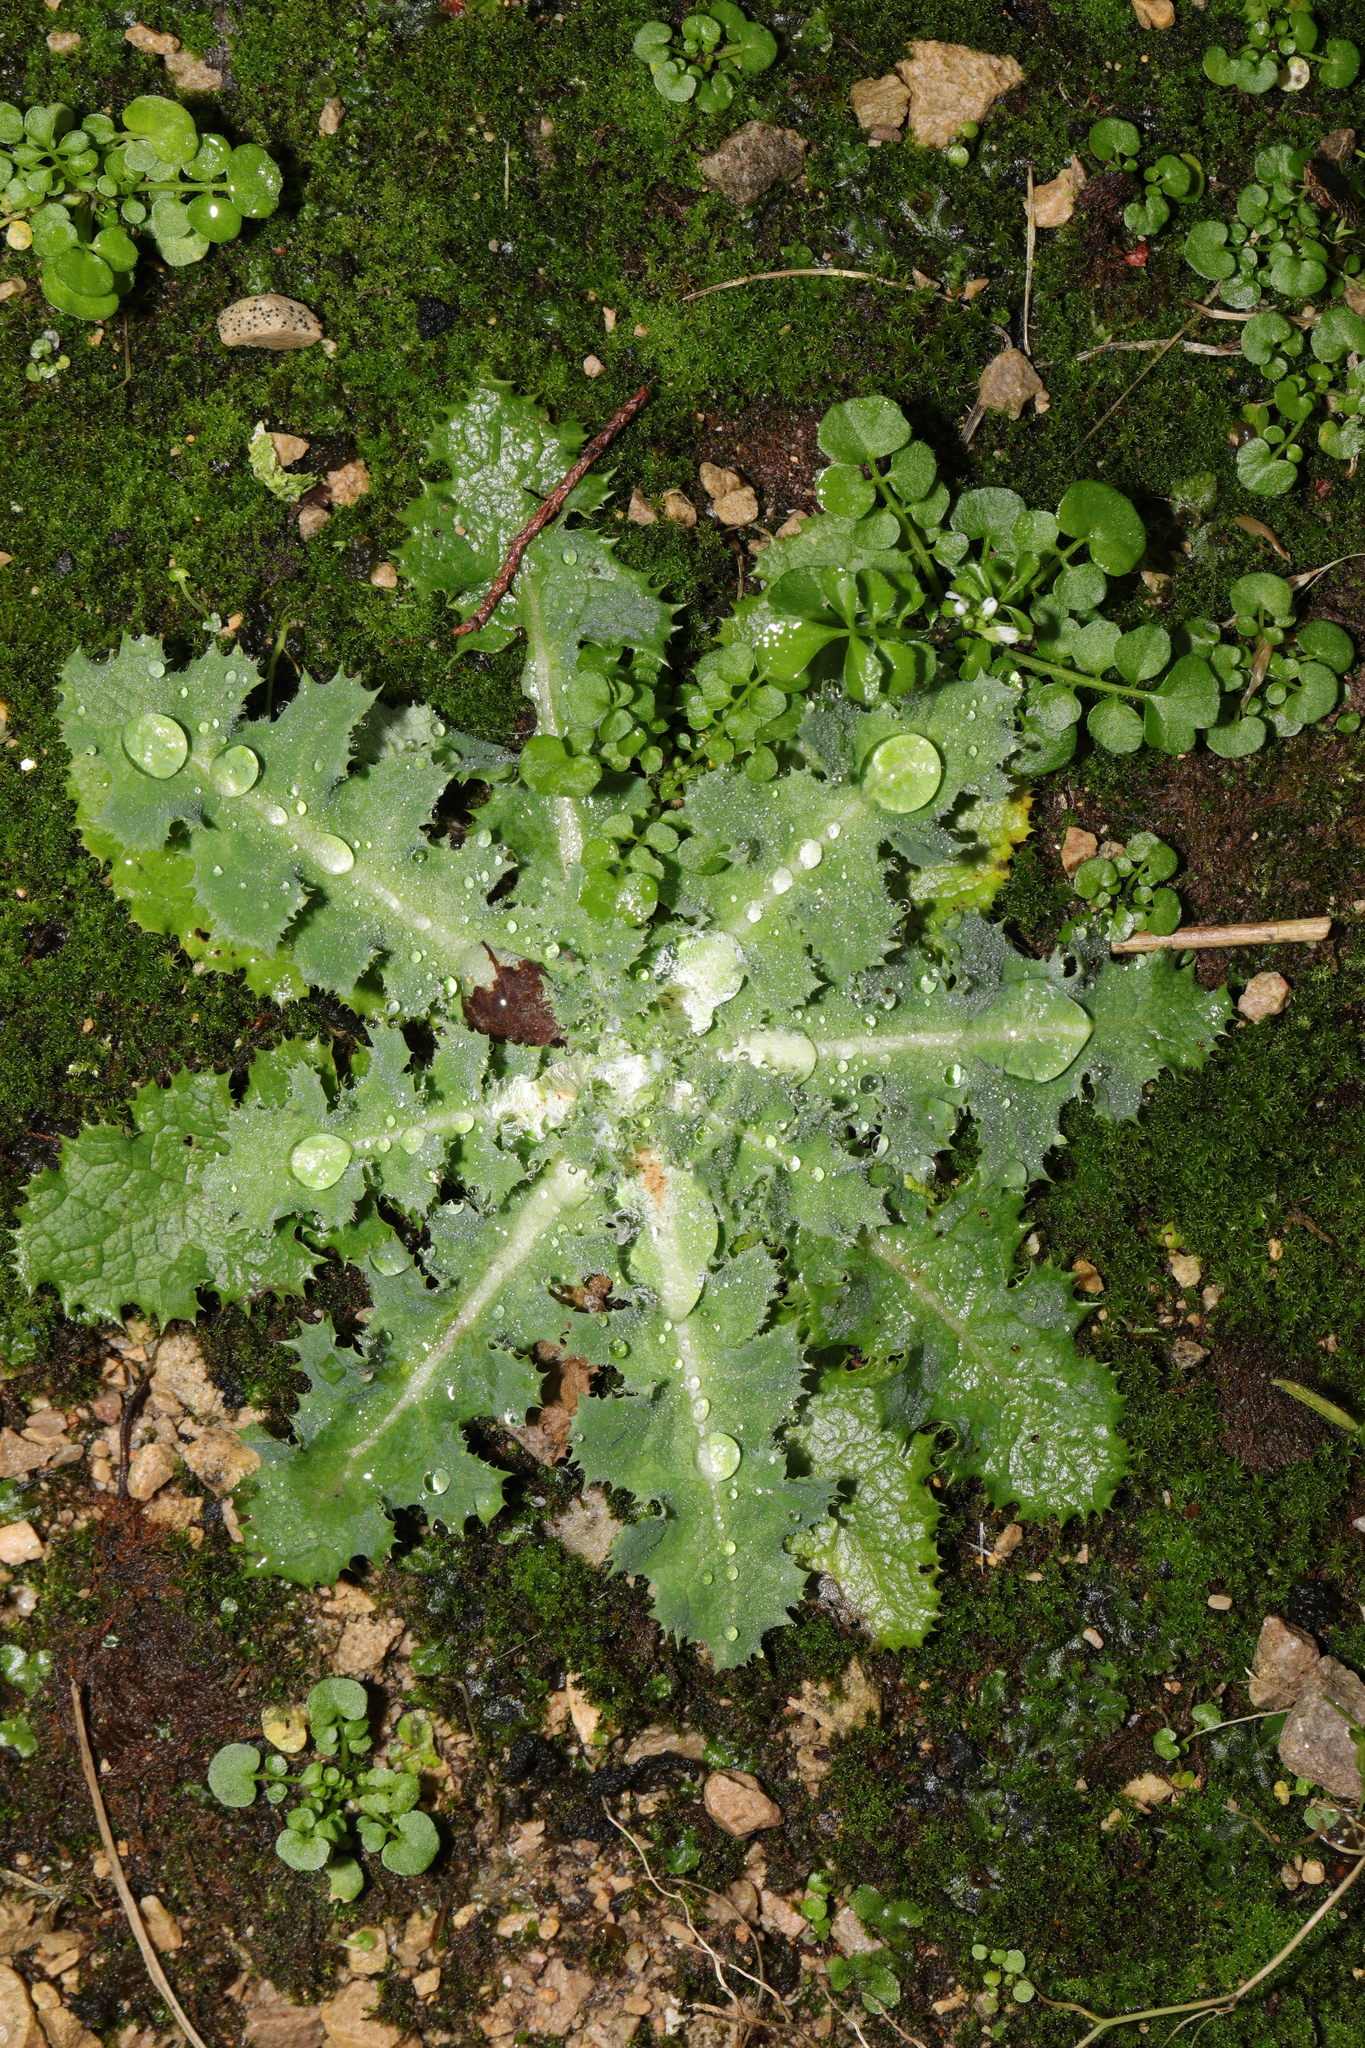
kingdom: Plantae
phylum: Tracheophyta
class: Magnoliopsida
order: Asterales
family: Asteraceae
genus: Sonchus
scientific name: Sonchus asper
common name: Prickly sow-thistle
